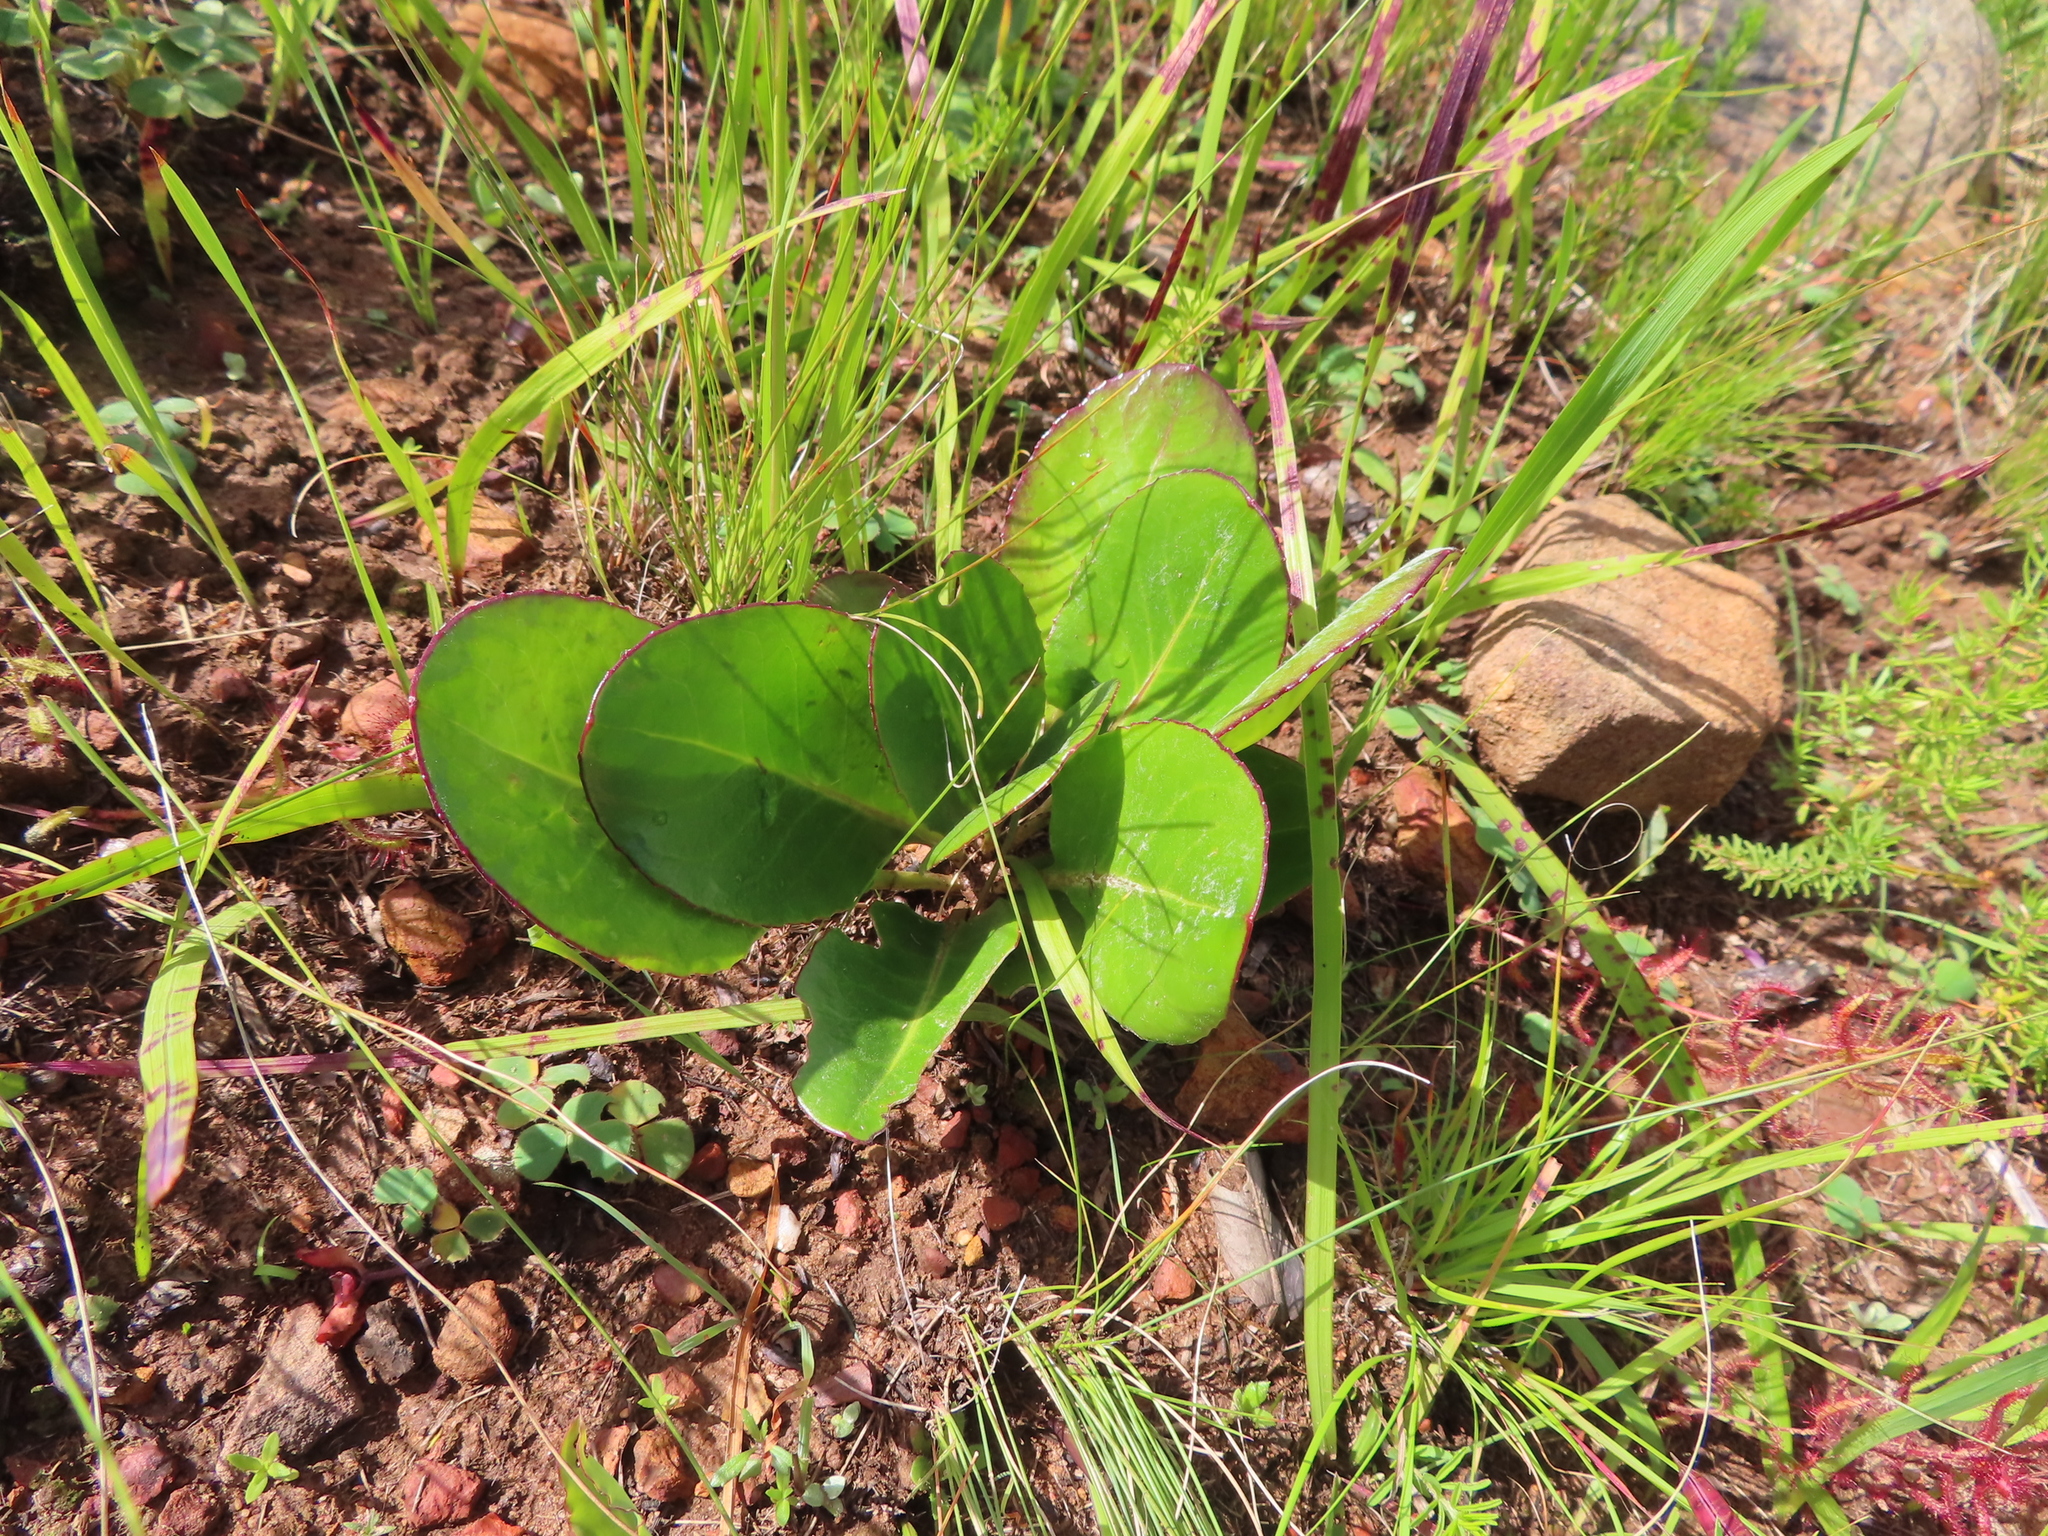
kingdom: Plantae
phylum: Tracheophyta
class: Magnoliopsida
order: Asterales
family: Asteraceae
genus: Gerbera
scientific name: Gerbera crocea
